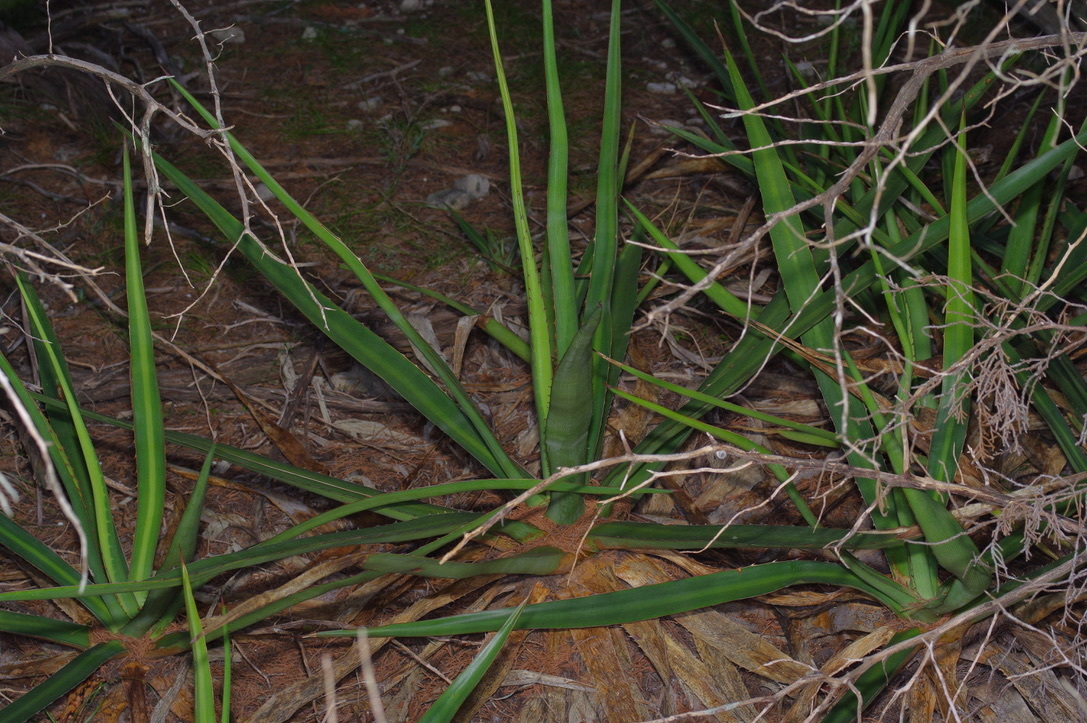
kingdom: Plantae
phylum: Tracheophyta
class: Liliopsida
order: Asparagales
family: Asparagaceae
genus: Agave
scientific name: Agave univittata
